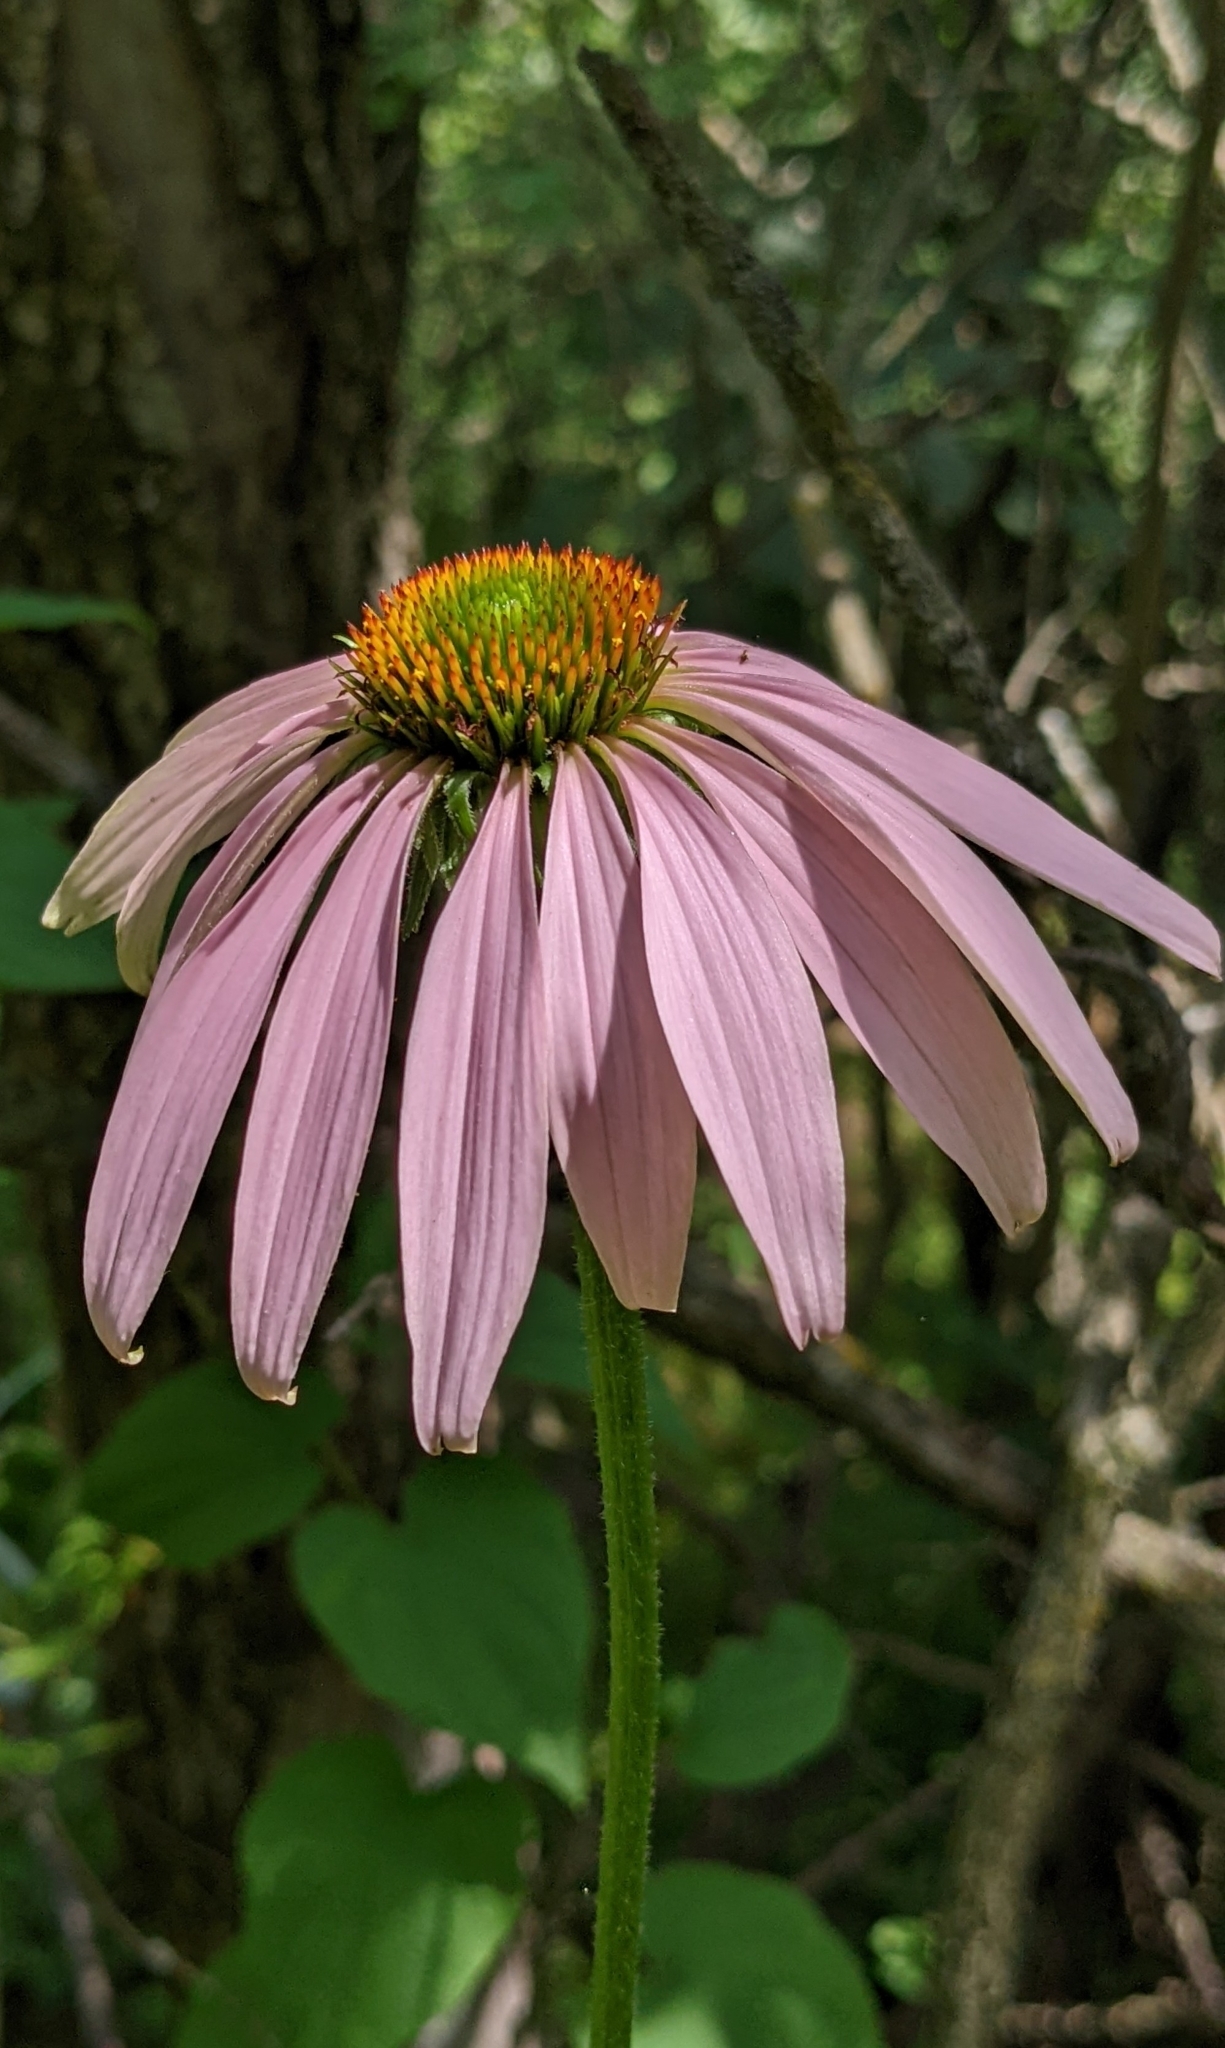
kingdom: Plantae
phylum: Tracheophyta
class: Magnoliopsida
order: Asterales
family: Asteraceae
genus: Echinacea
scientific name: Echinacea purpurea
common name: Broad-leaved purple coneflower
